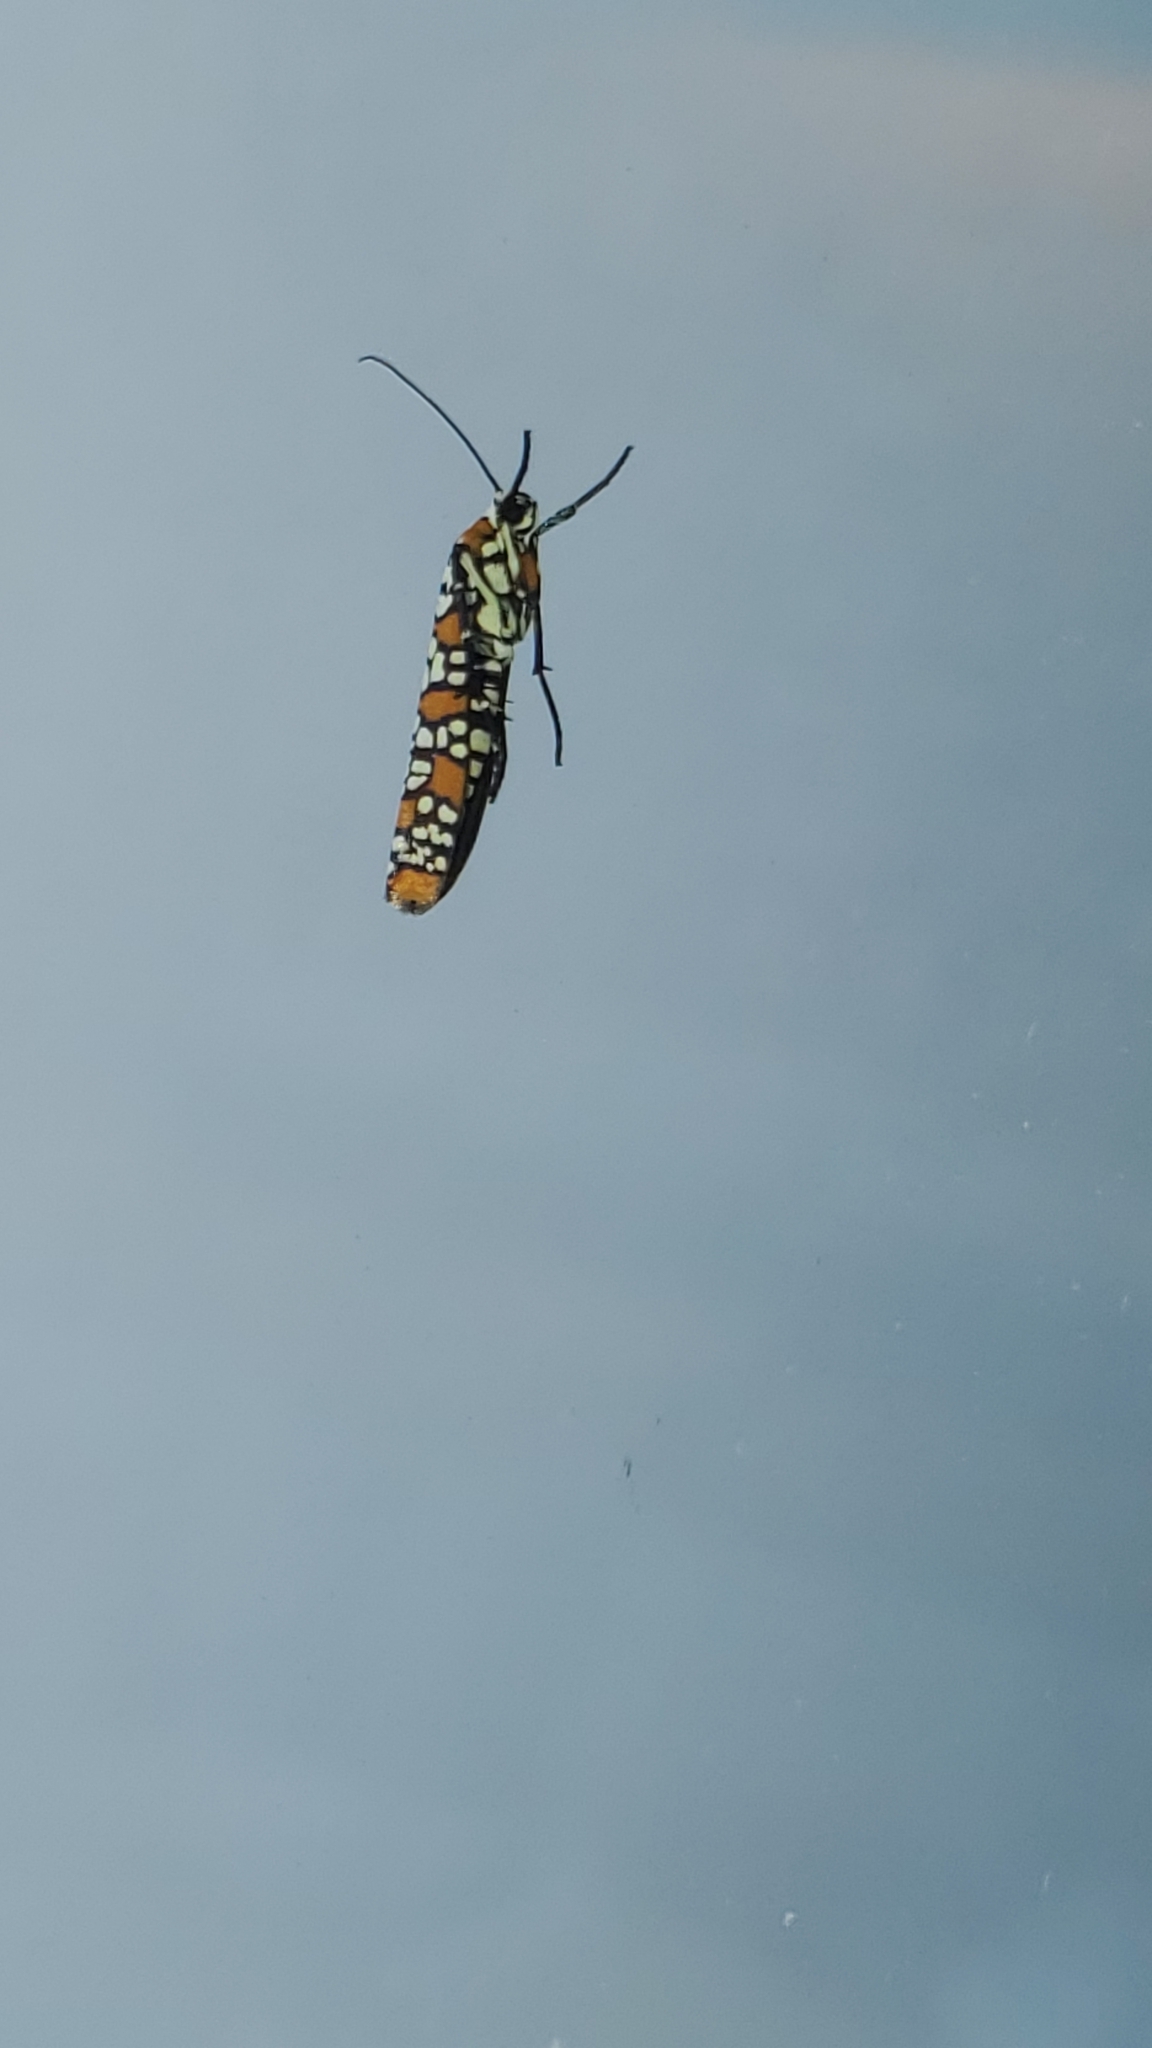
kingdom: Animalia
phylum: Arthropoda
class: Insecta
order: Lepidoptera
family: Attevidae
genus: Atteva
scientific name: Atteva punctella
